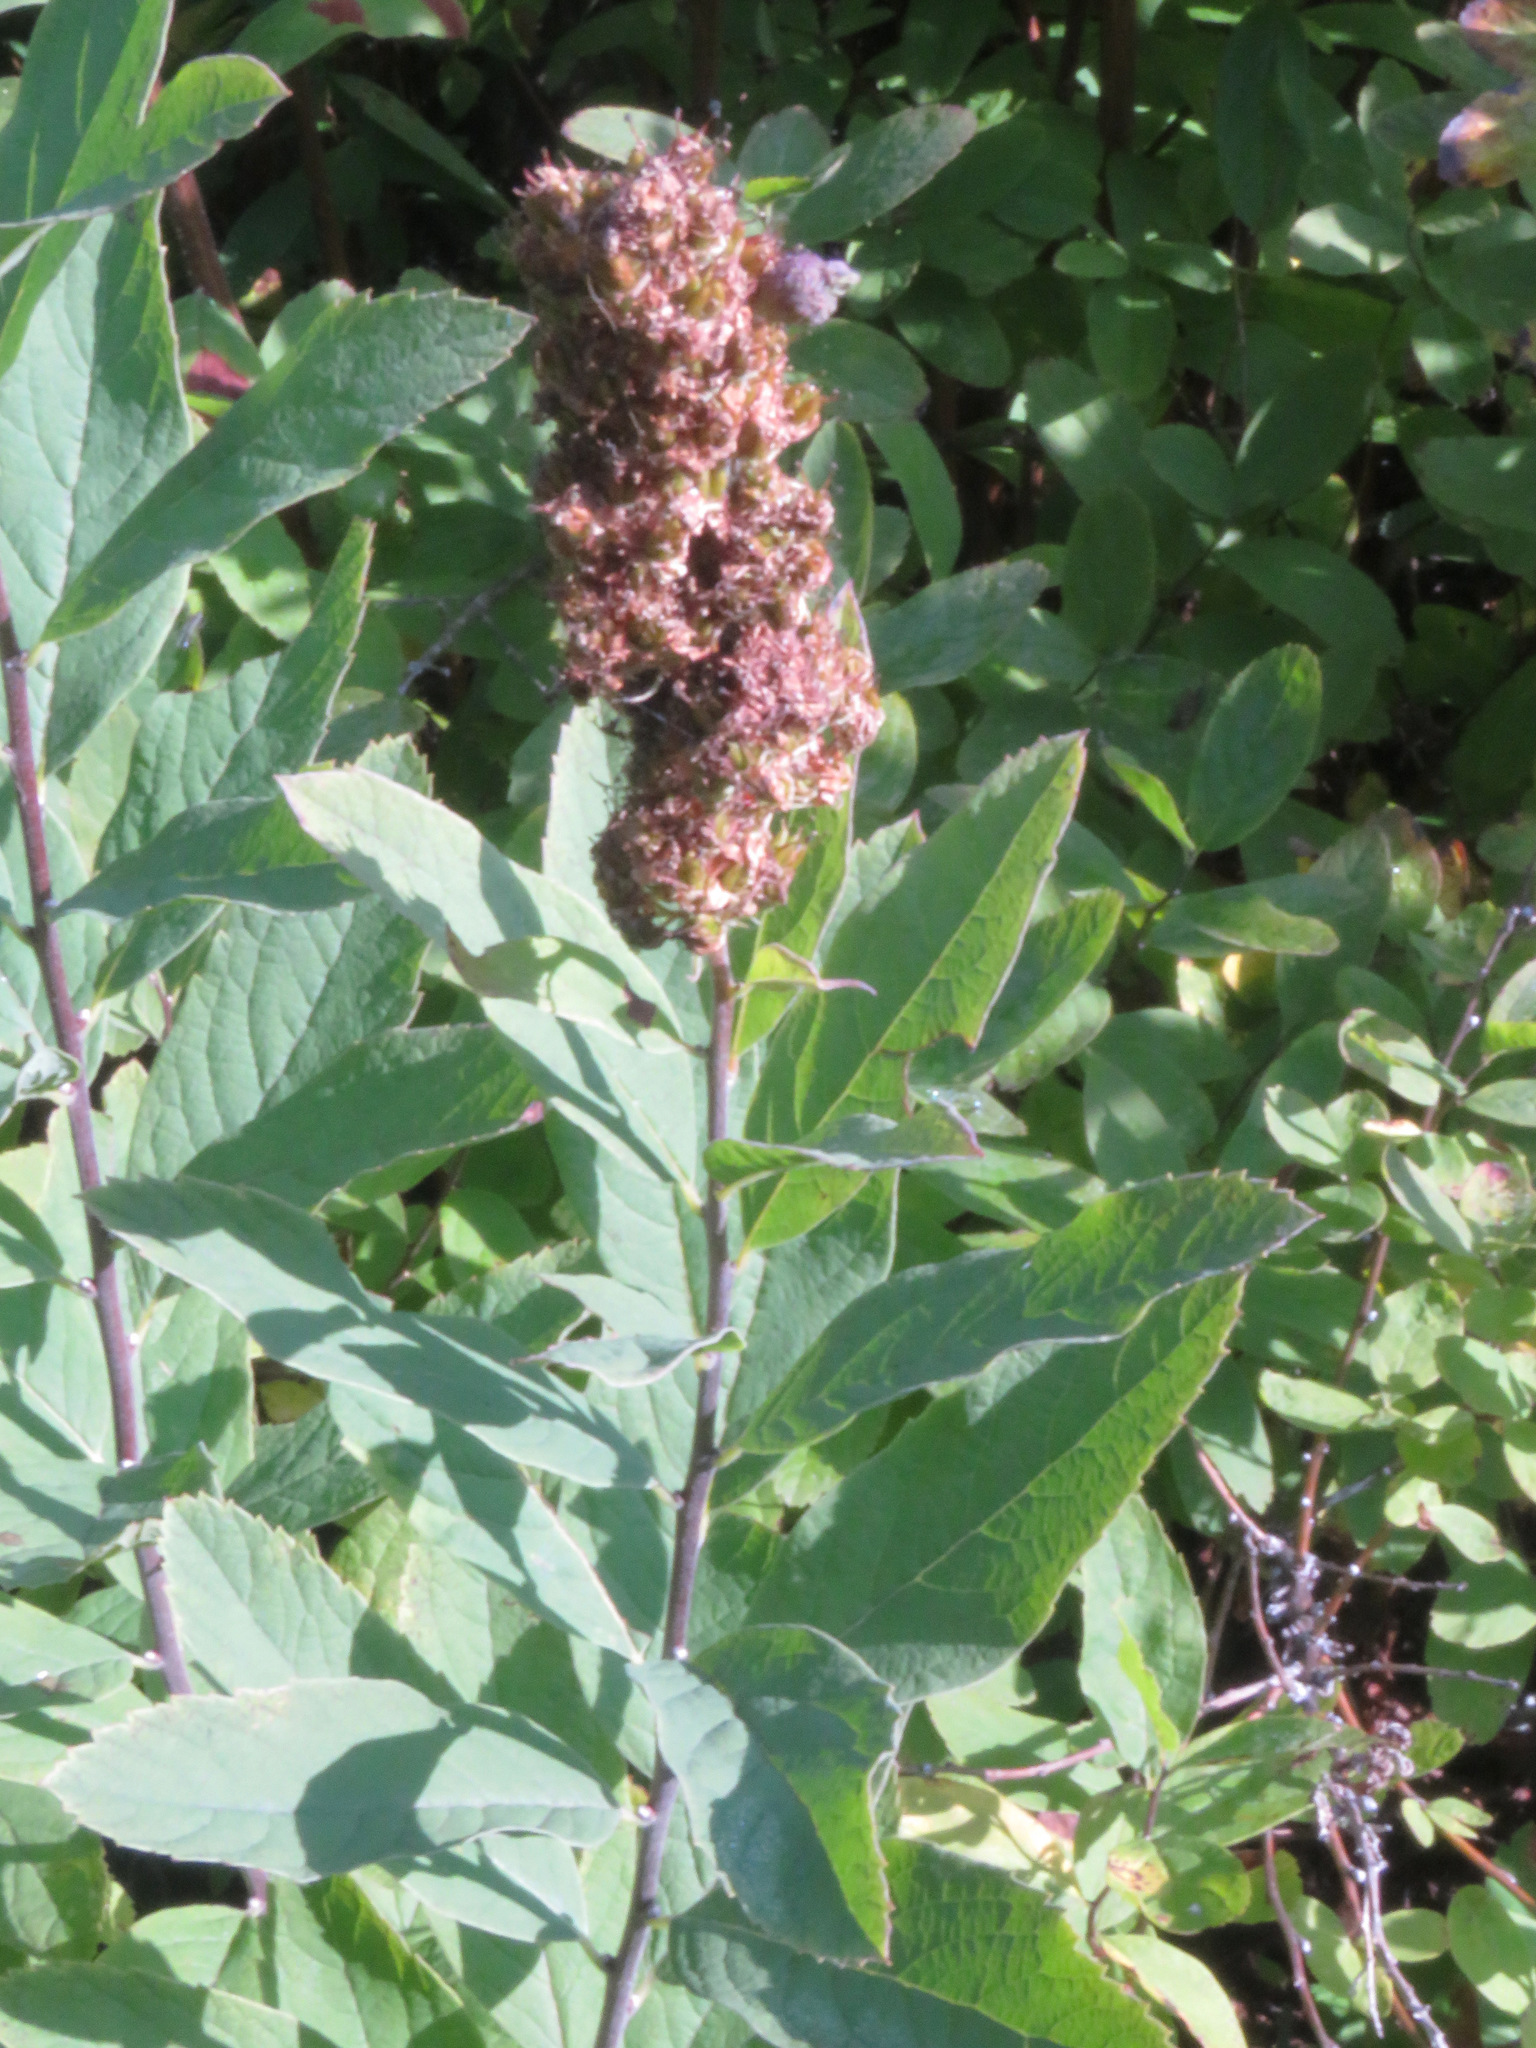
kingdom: Plantae
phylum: Tracheophyta
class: Magnoliopsida
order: Rosales
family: Rosaceae
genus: Spiraea
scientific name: Spiraea douglasii
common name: Steeplebush
